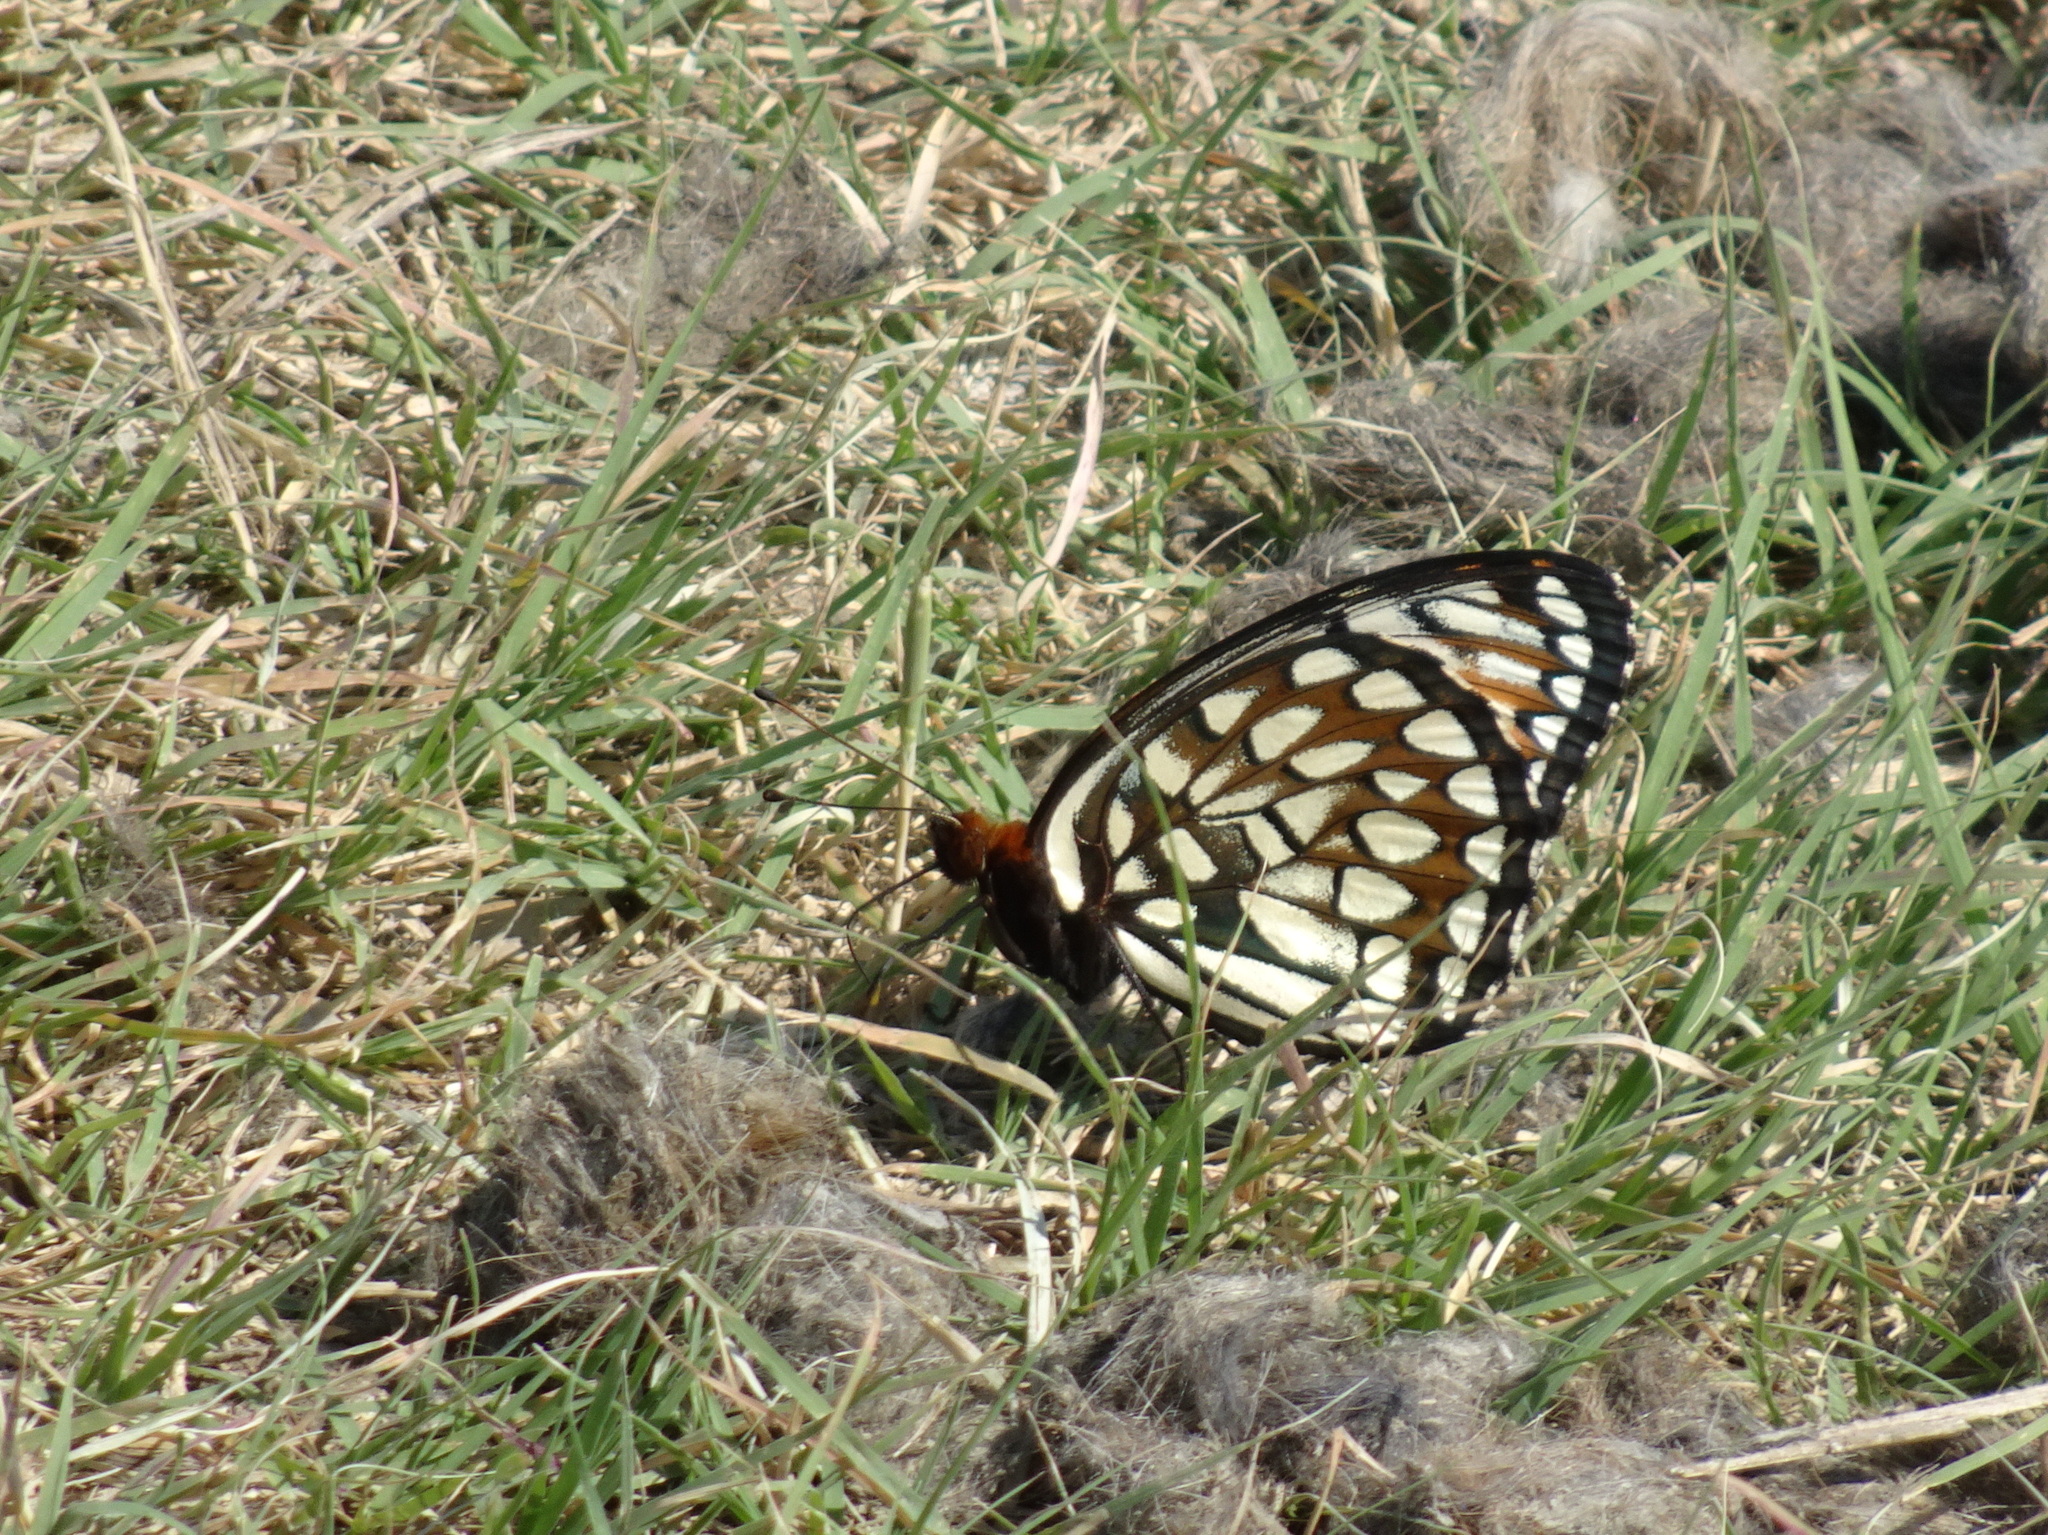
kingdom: Animalia
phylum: Arthropoda
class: Insecta
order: Lepidoptera
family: Nymphalidae
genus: Speyeria
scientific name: Speyeria idalia
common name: Regal fritillary
